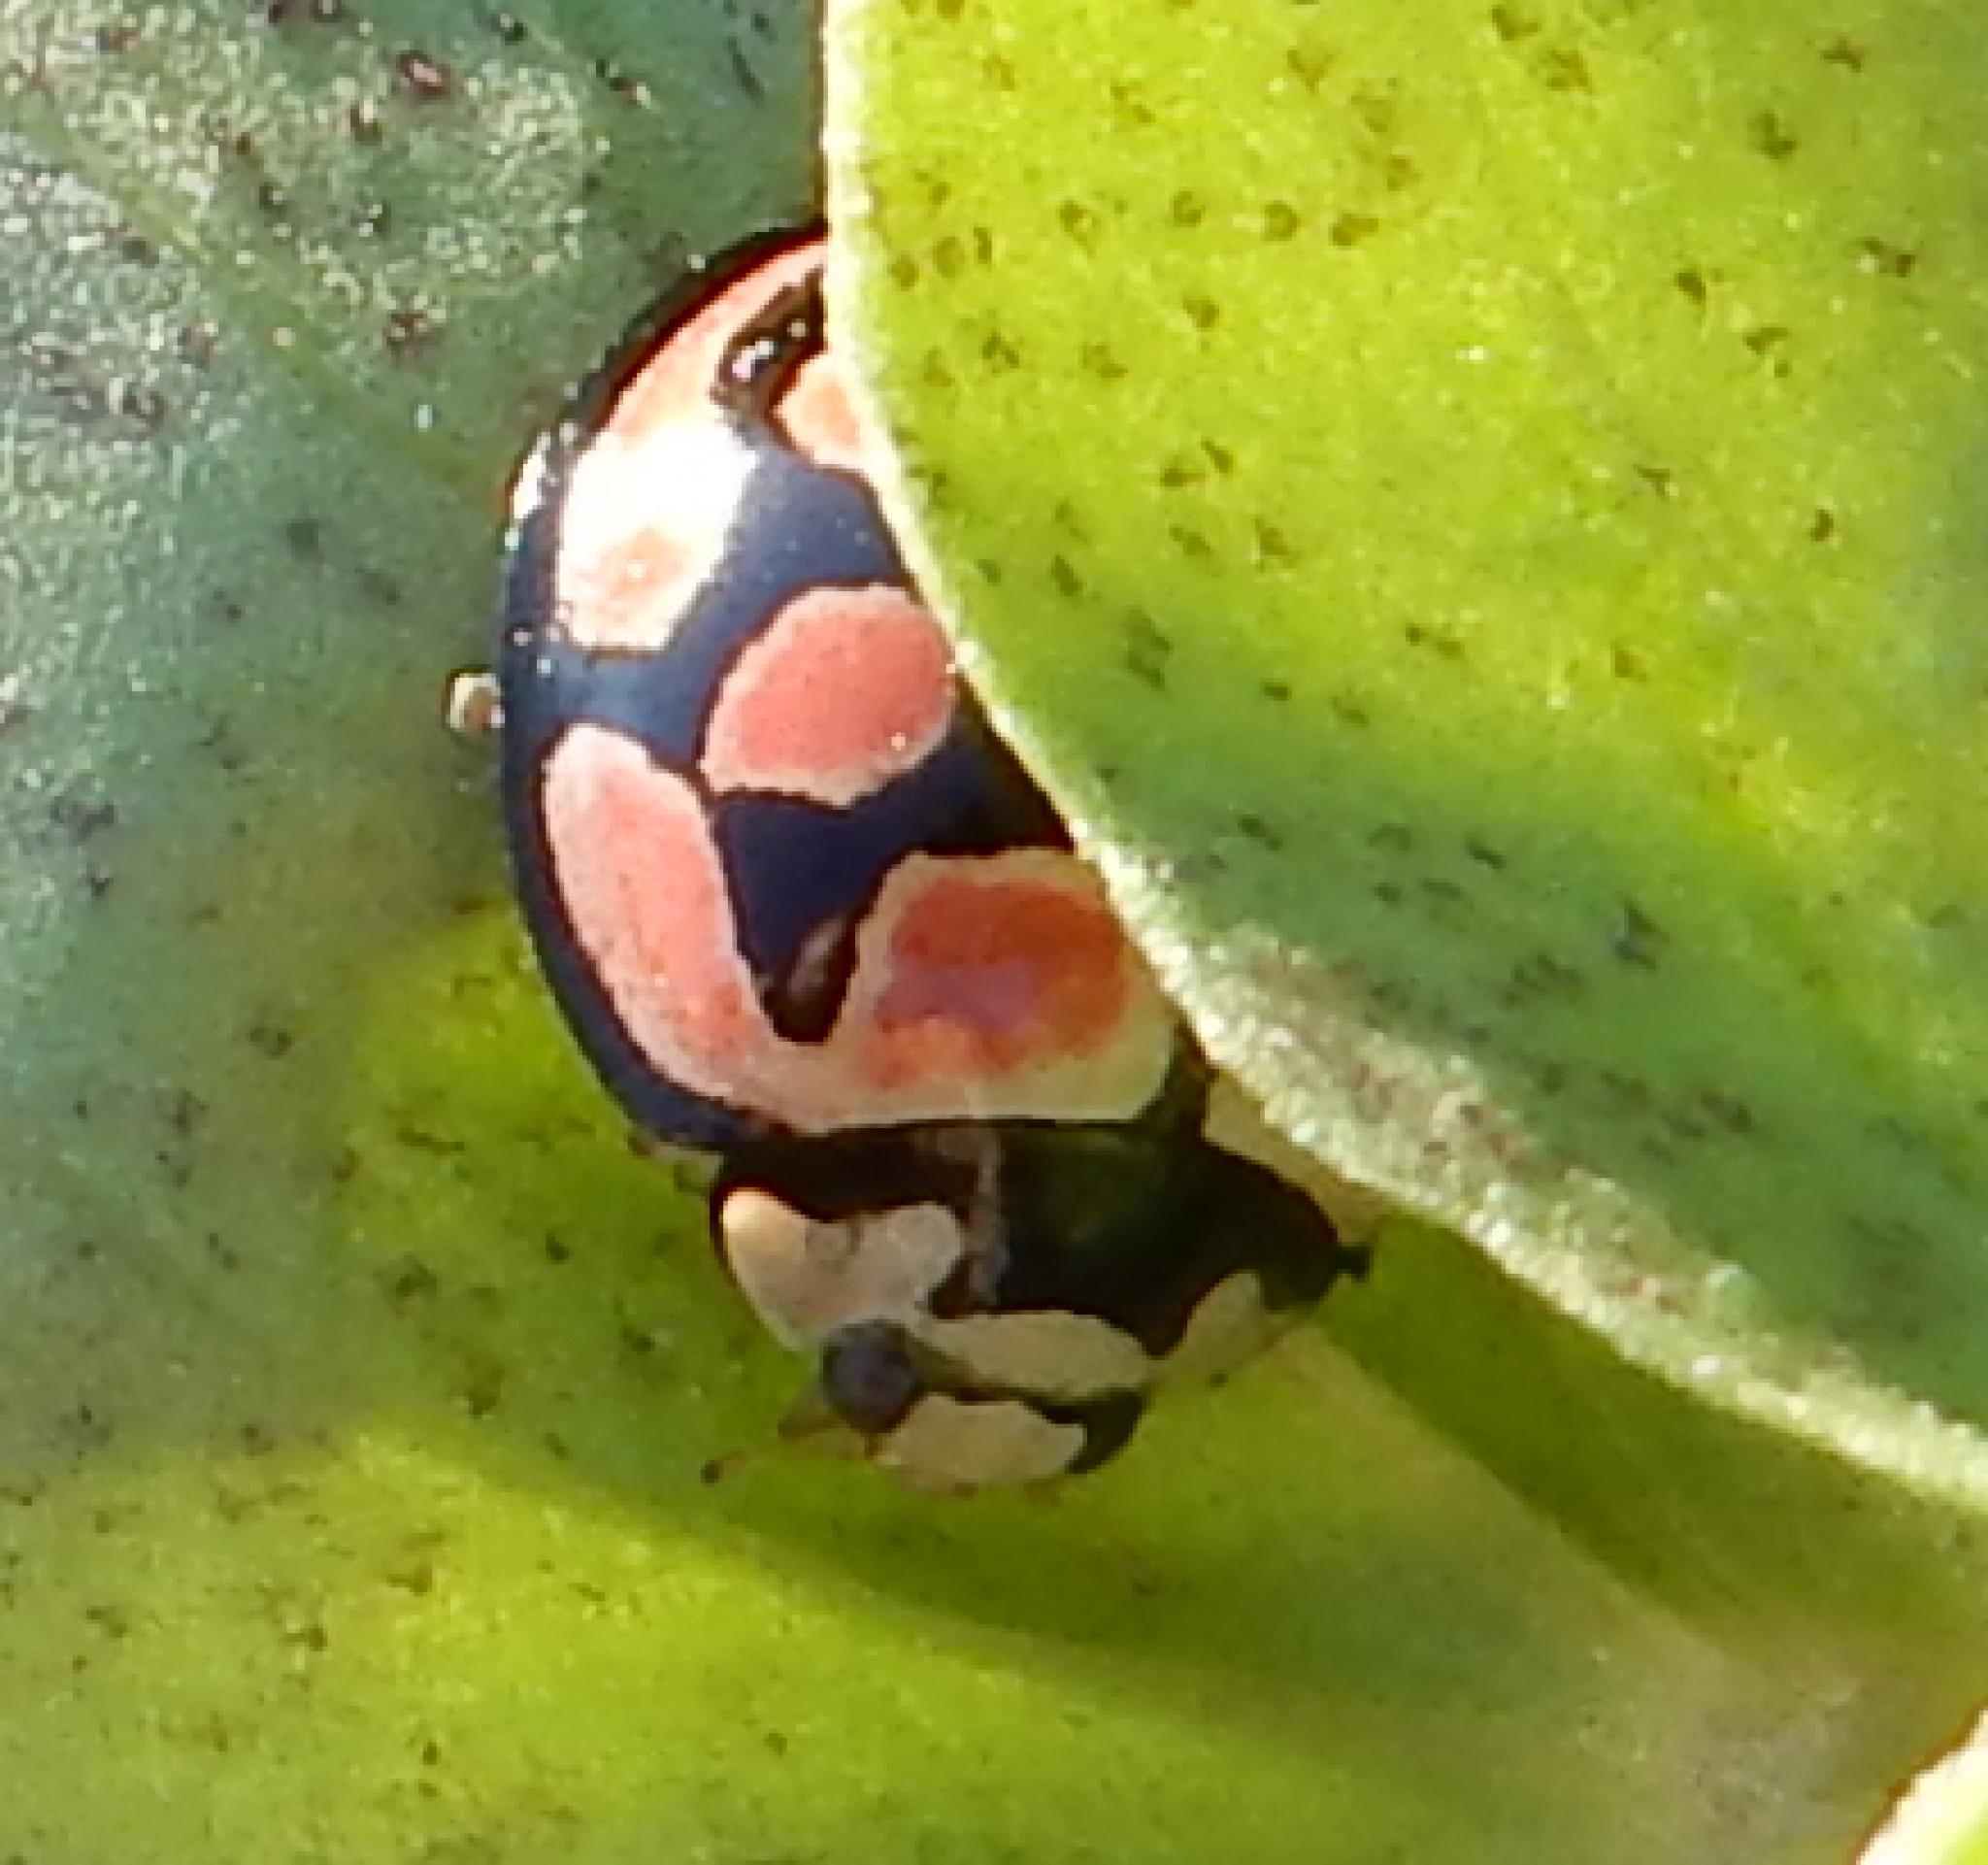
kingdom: Animalia
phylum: Arthropoda
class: Insecta
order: Coleoptera
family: Coccinellidae
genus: Cheilomenes
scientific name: Cheilomenes lunata
